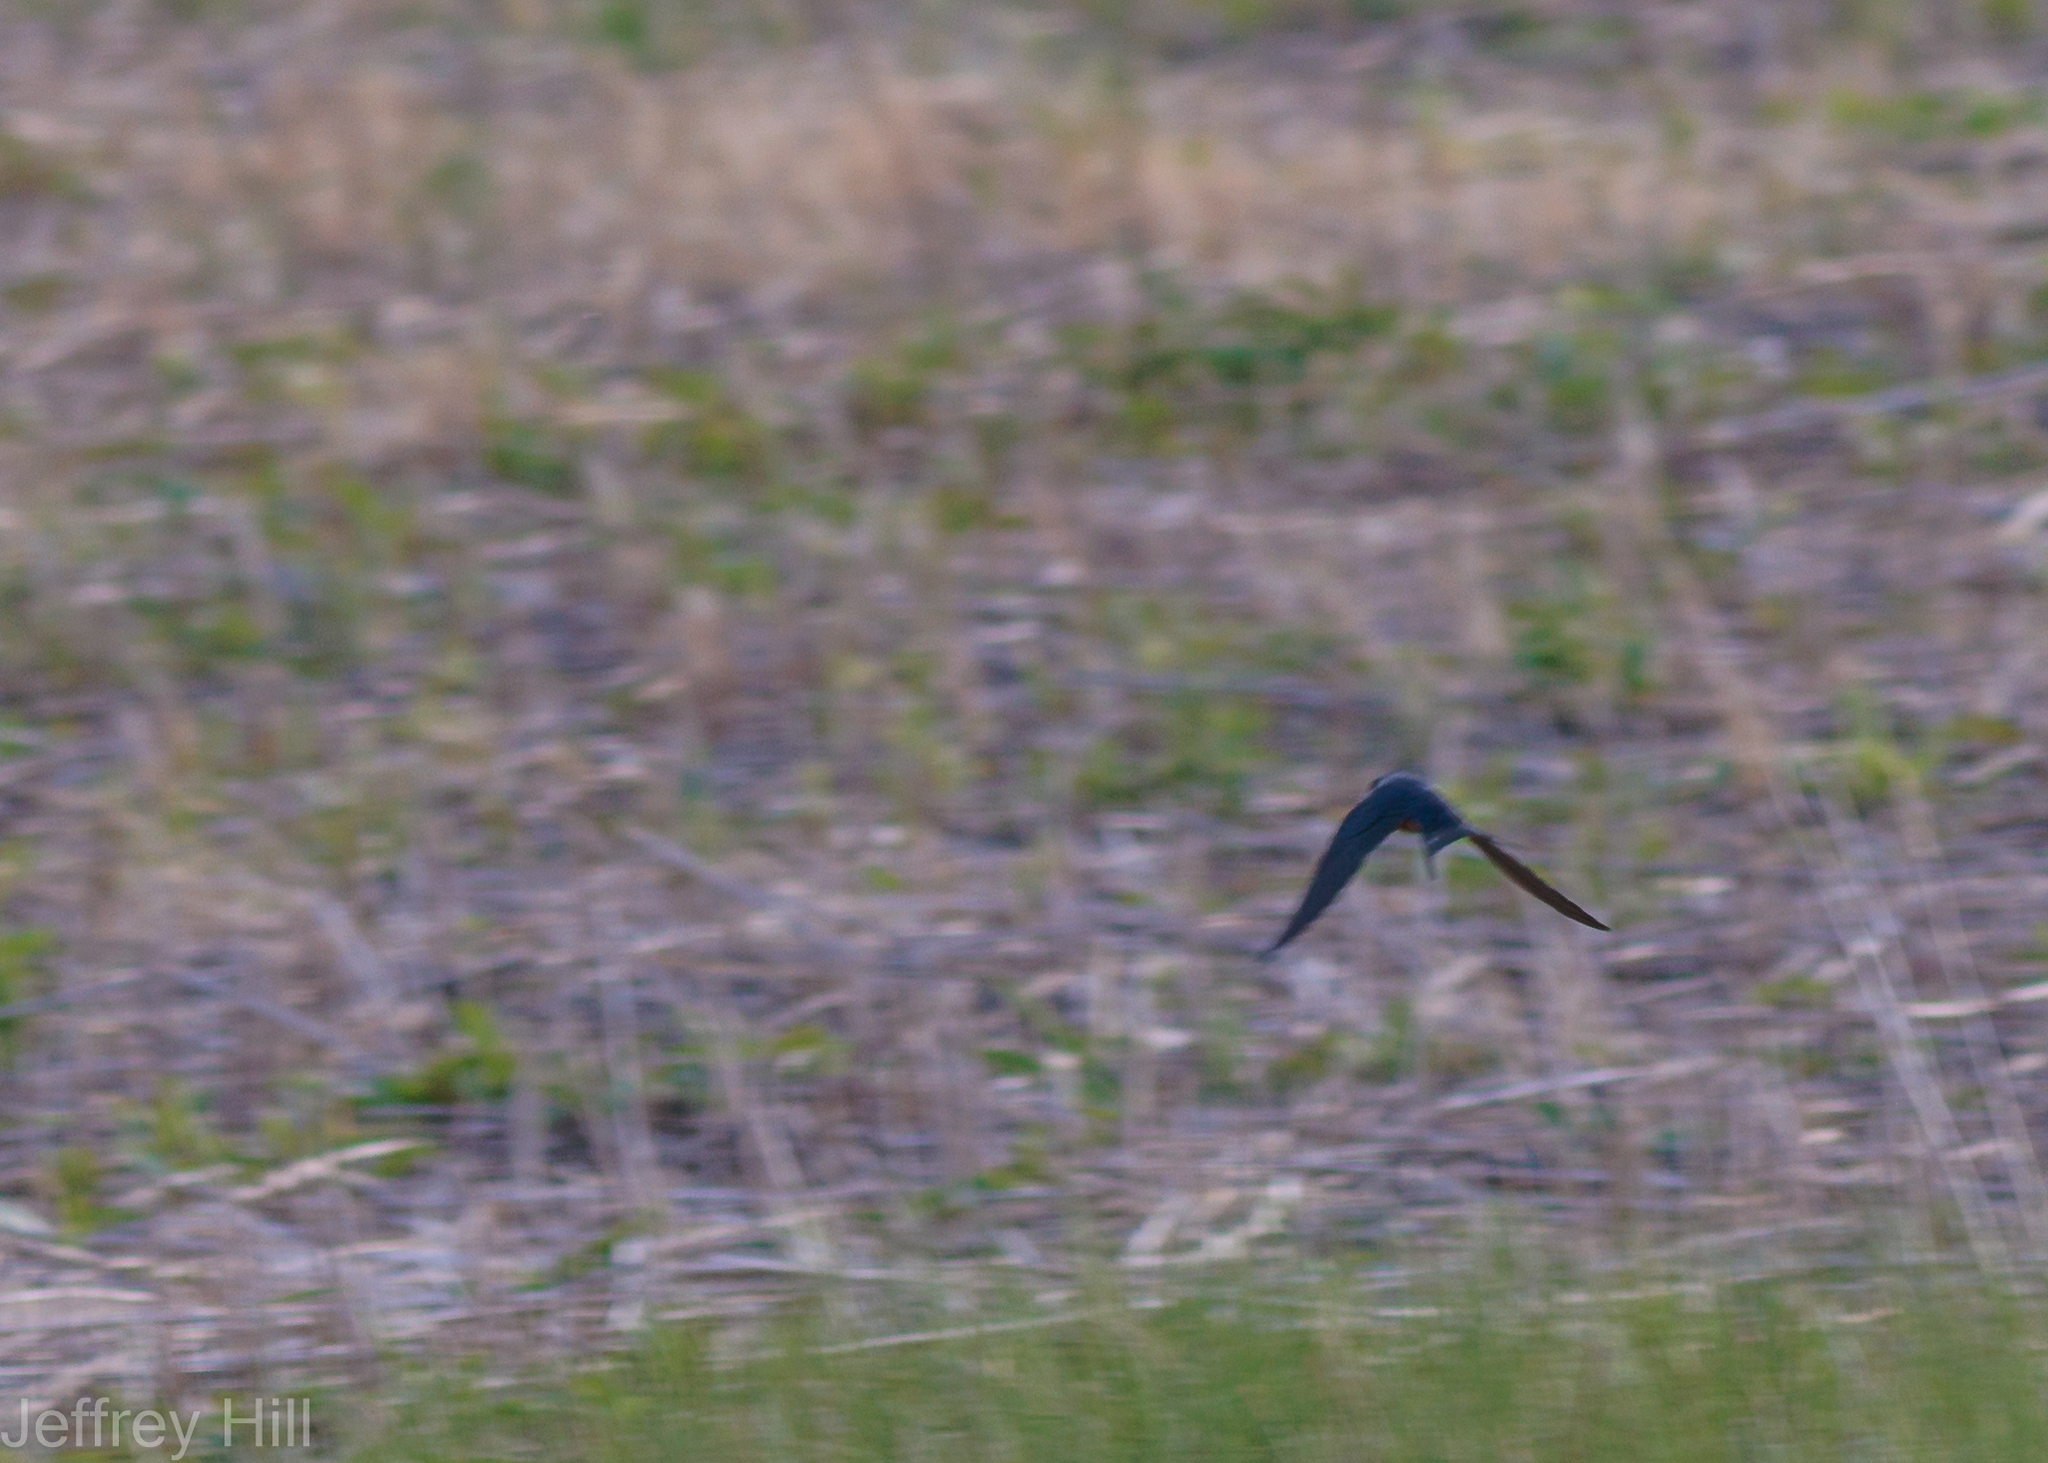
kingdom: Animalia
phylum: Chordata
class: Aves
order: Passeriformes
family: Hirundinidae
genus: Hirundo
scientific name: Hirundo rustica
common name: Barn swallow
